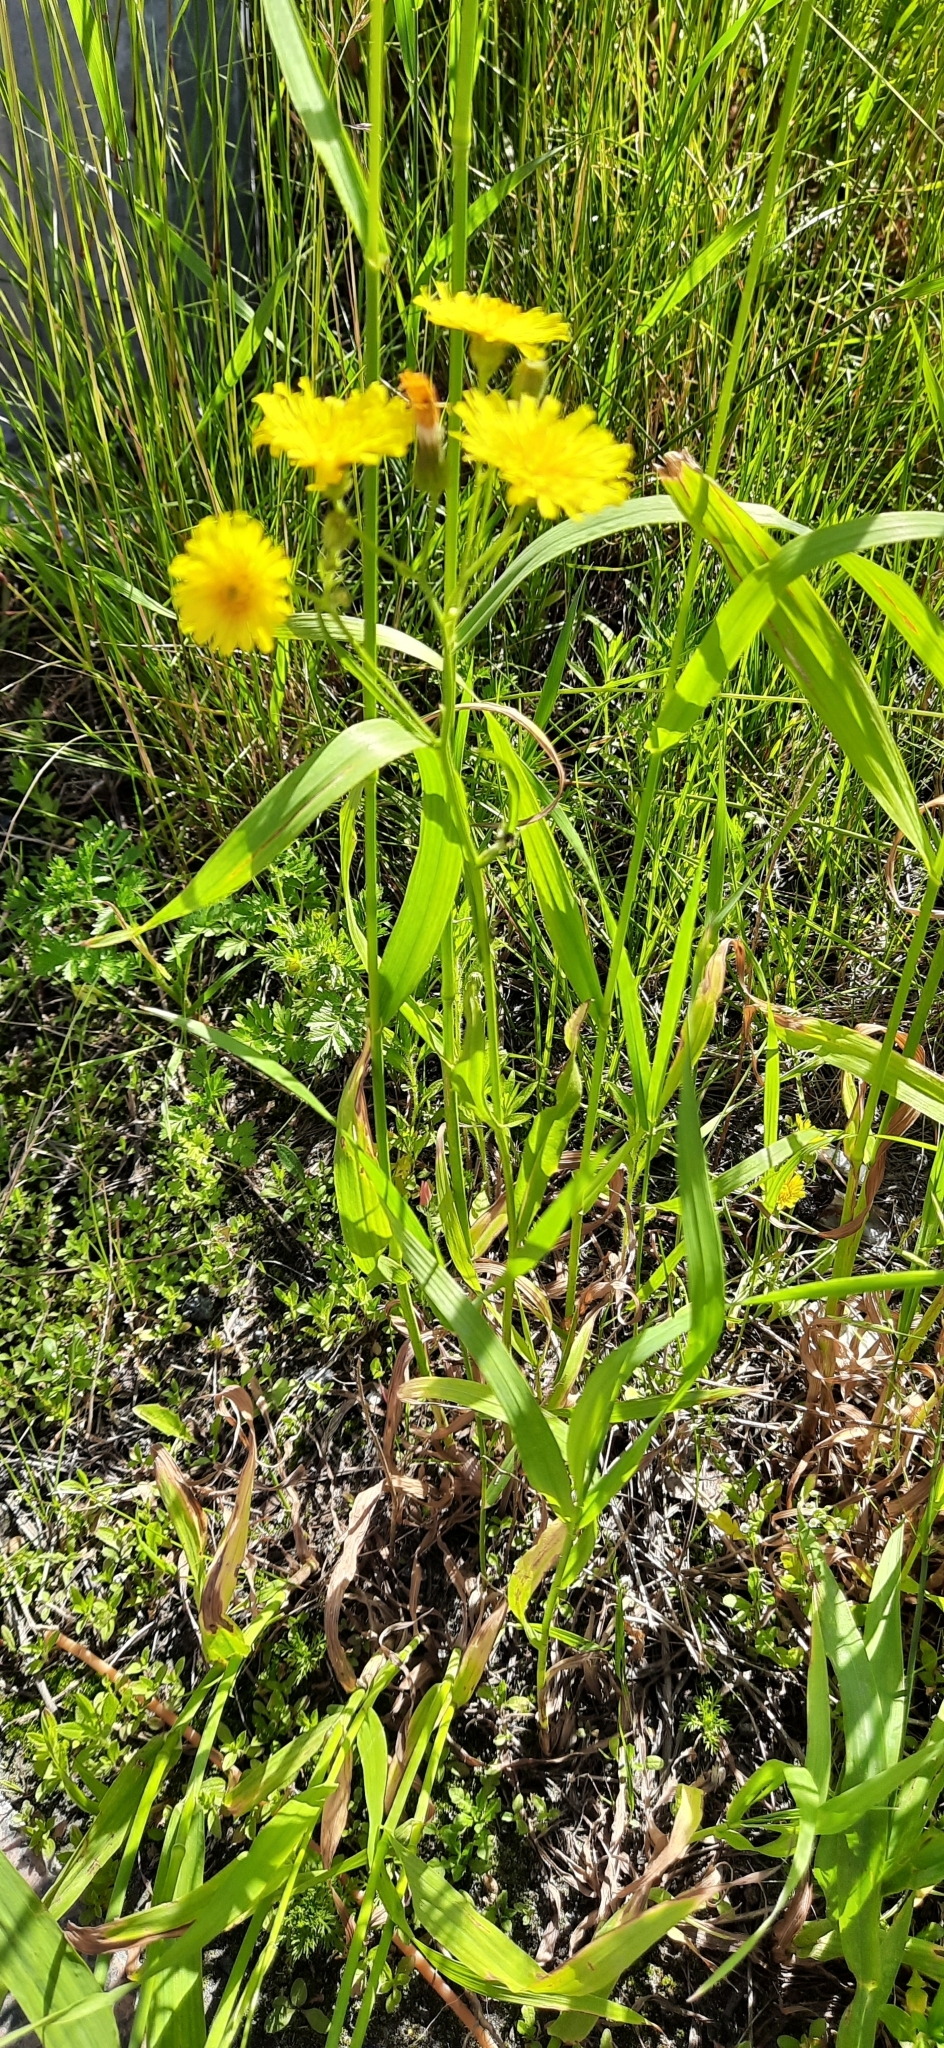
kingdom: Plantae
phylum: Tracheophyta
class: Magnoliopsida
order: Asterales
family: Asteraceae
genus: Crepis
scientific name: Crepis tectorum
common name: Narrow-leaved hawk's-beard
